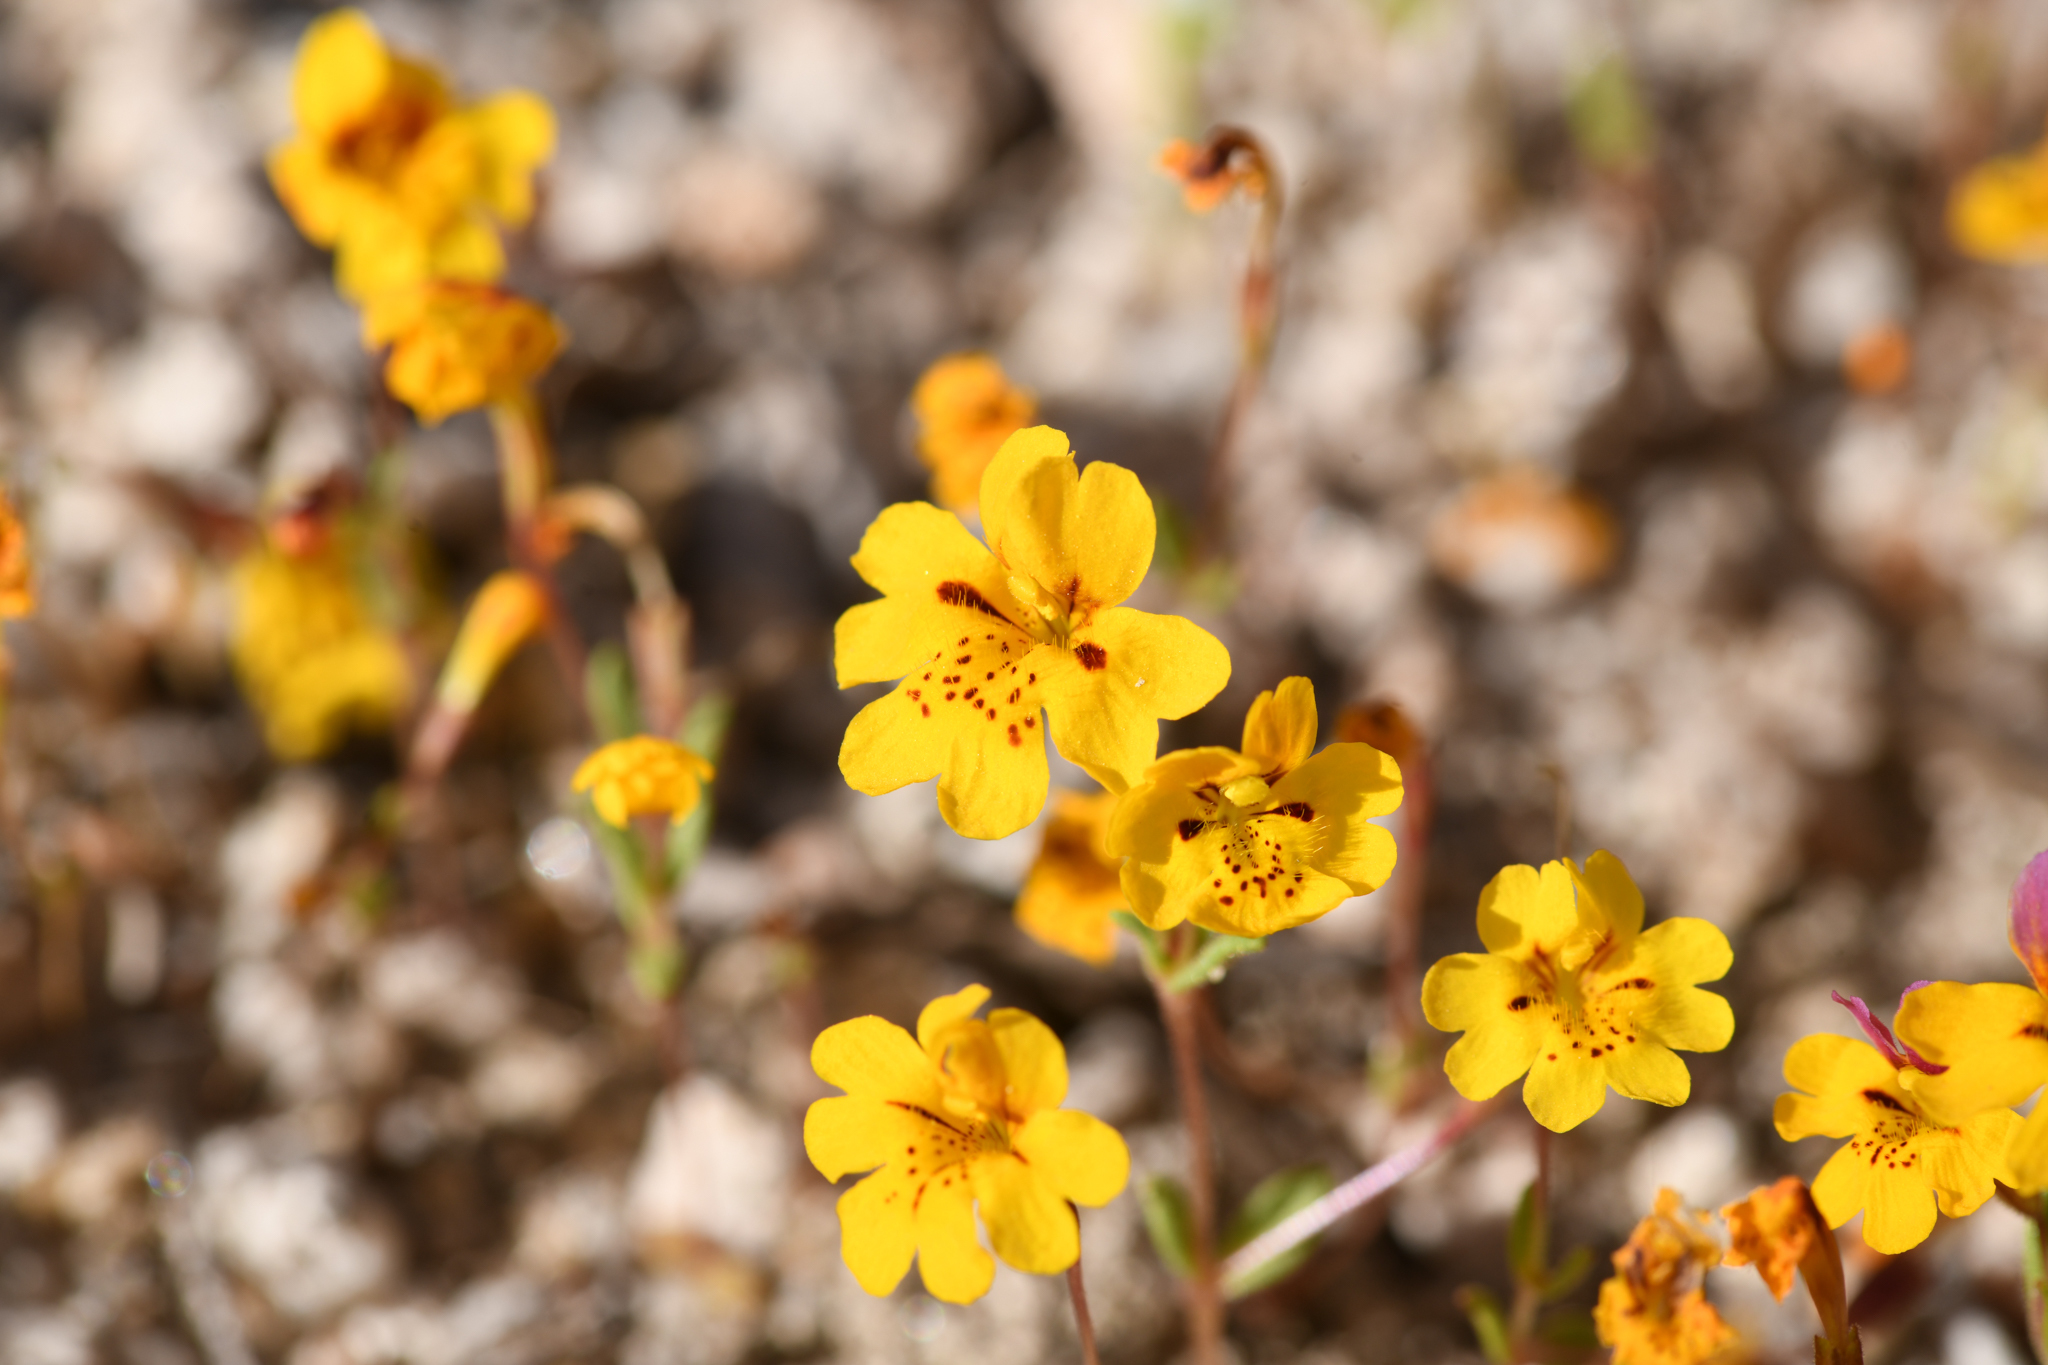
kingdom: Plantae
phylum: Tracheophyta
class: Magnoliopsida
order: Lamiales
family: Phrymaceae
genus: Erythranthe
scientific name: Erythranthe barbata
